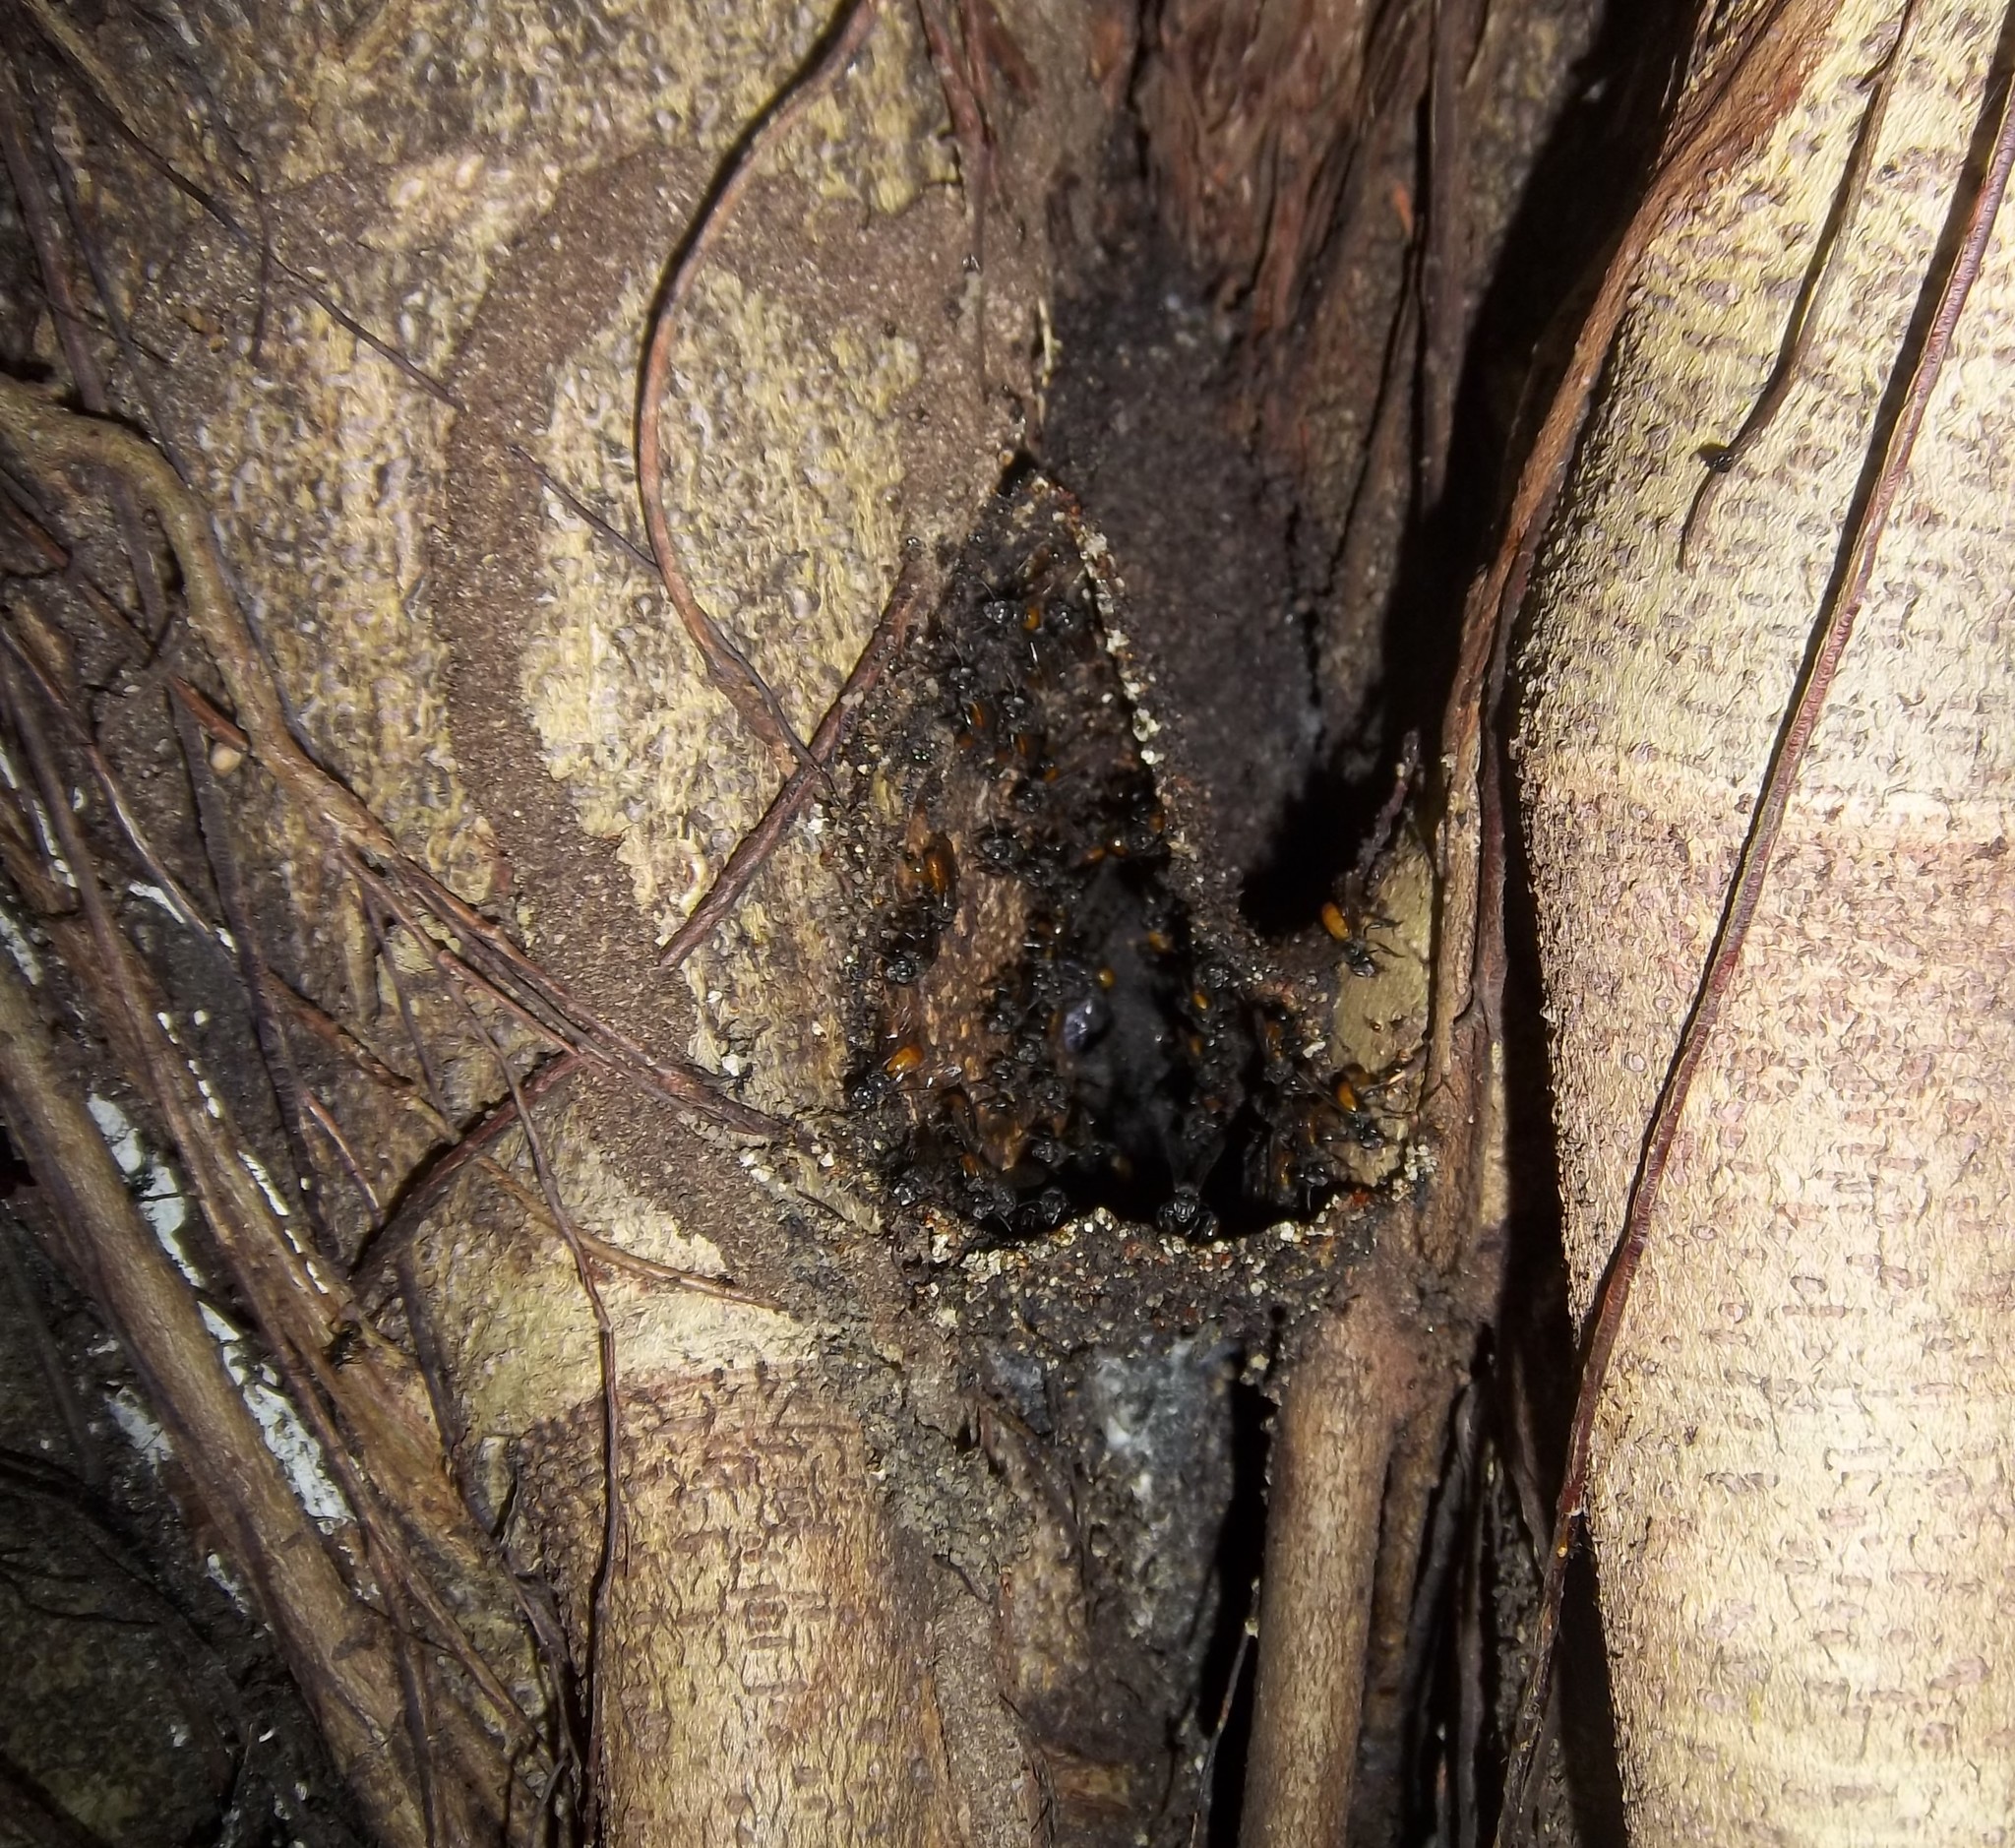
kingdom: Animalia
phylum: Arthropoda
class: Insecta
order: Hymenoptera
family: Apidae
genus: Trigona
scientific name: Trigona fulviventris
